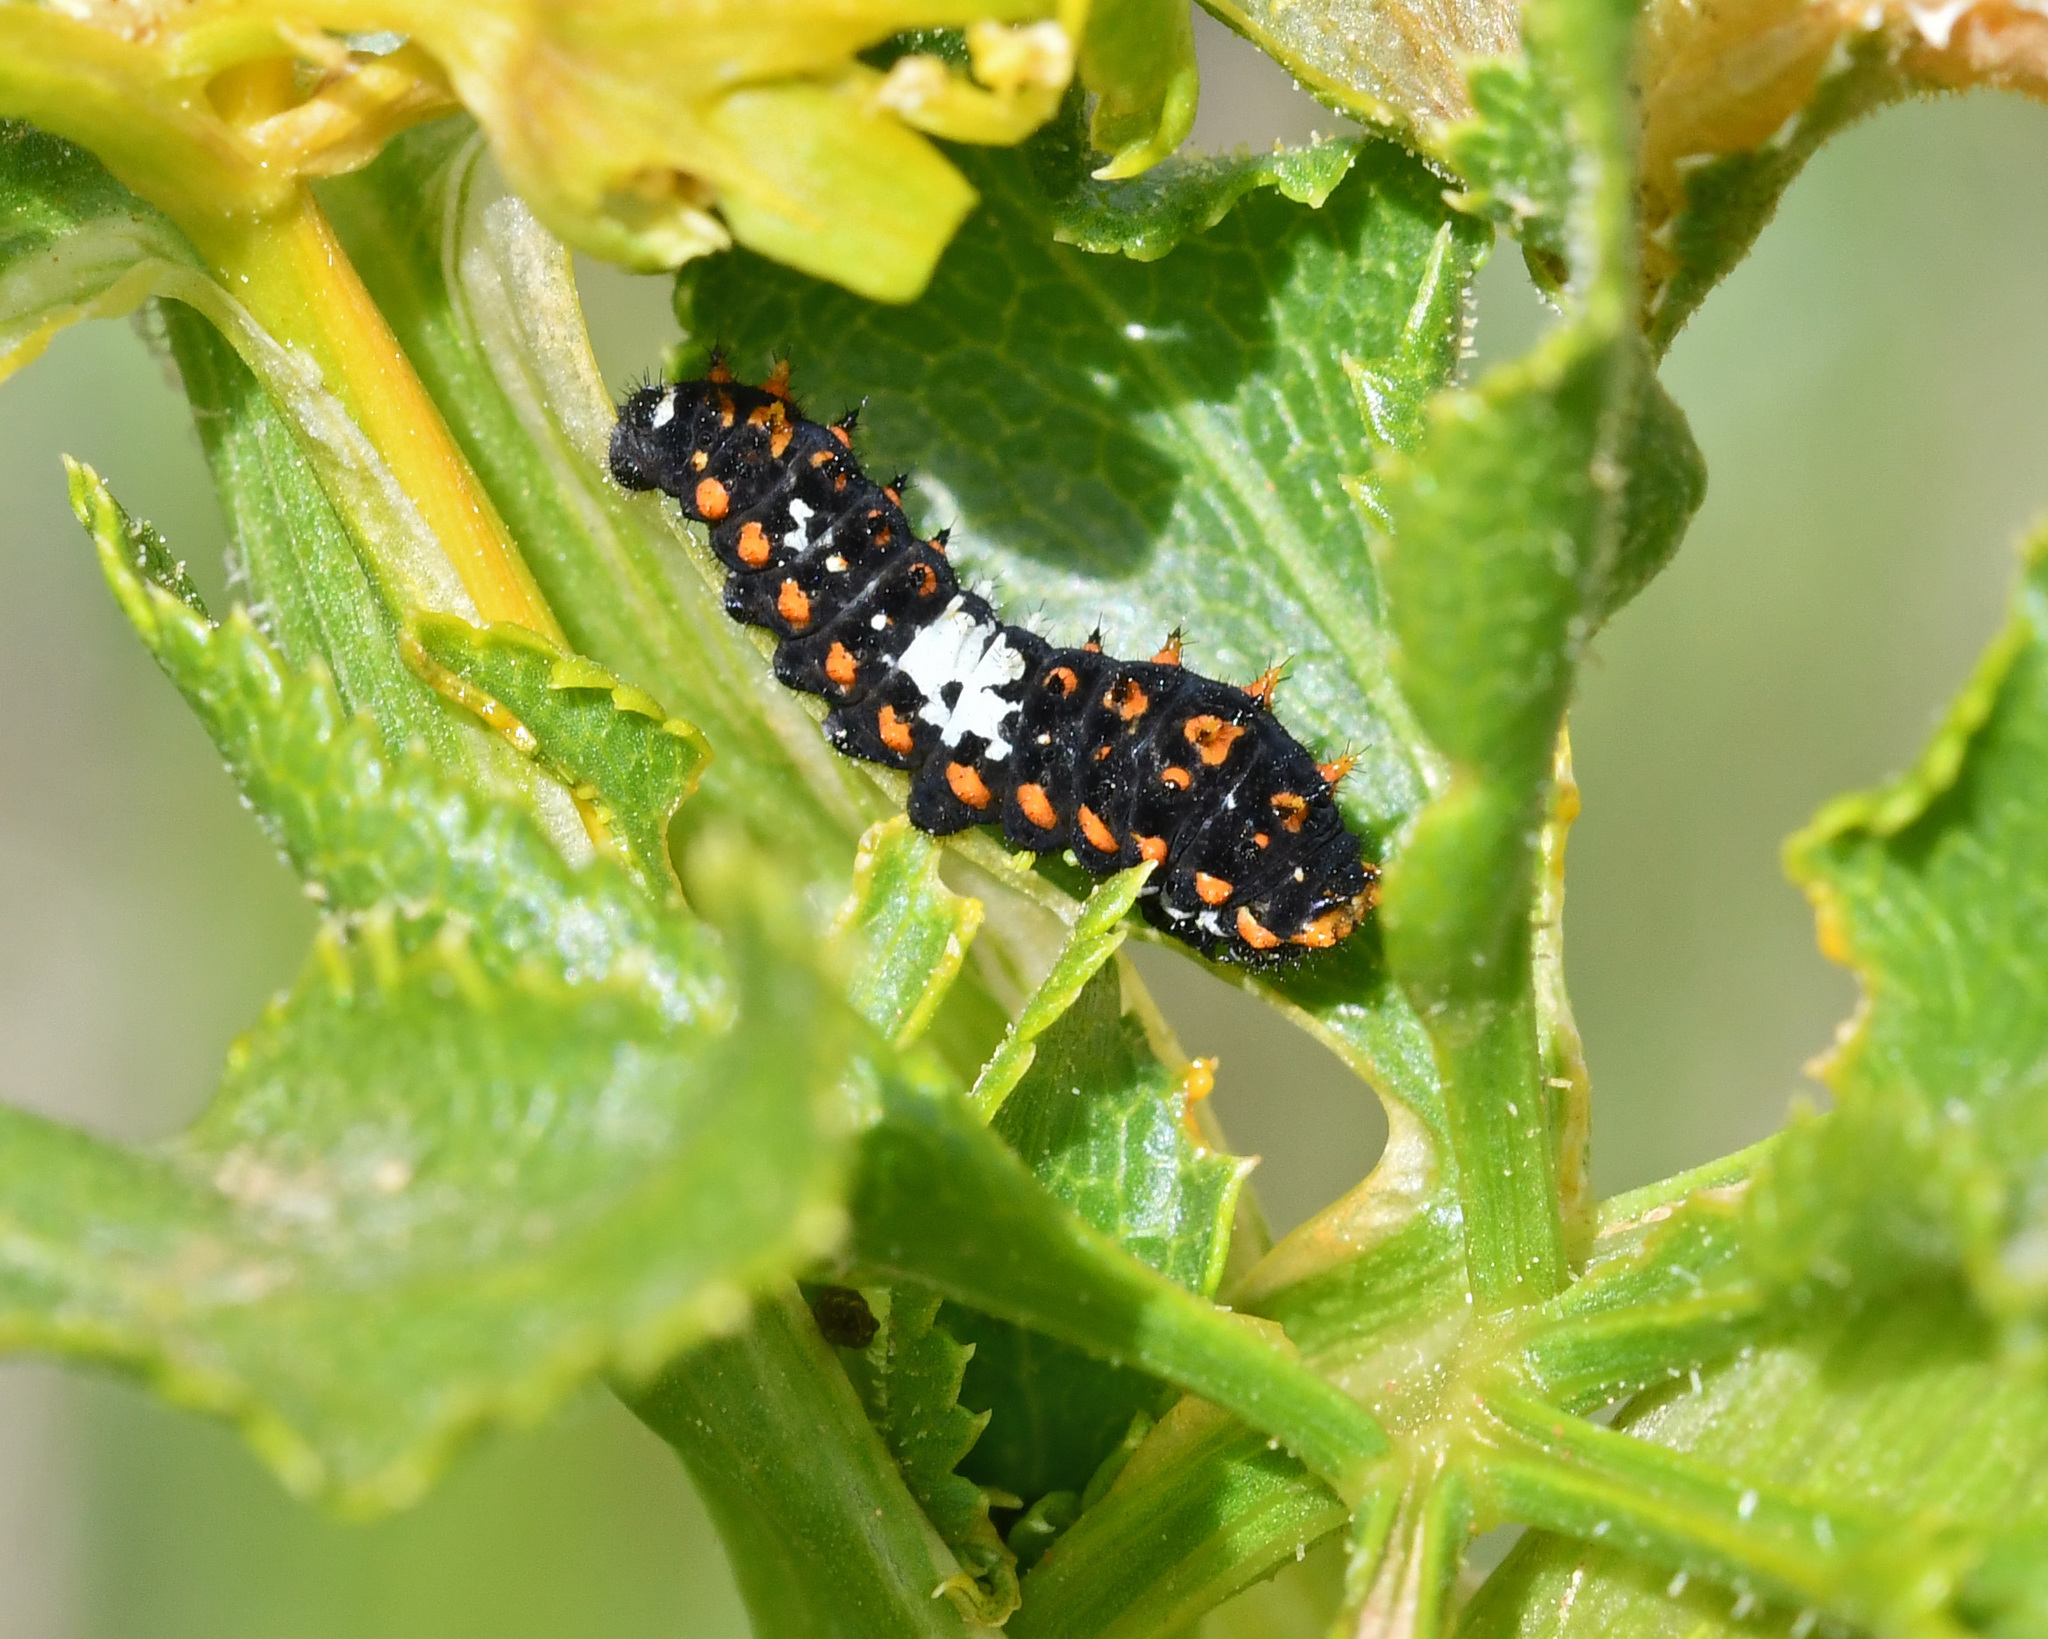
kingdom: Animalia
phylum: Arthropoda
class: Insecta
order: Lepidoptera
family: Papilionidae
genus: Papilio
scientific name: Papilio machaon
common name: Swallowtail
